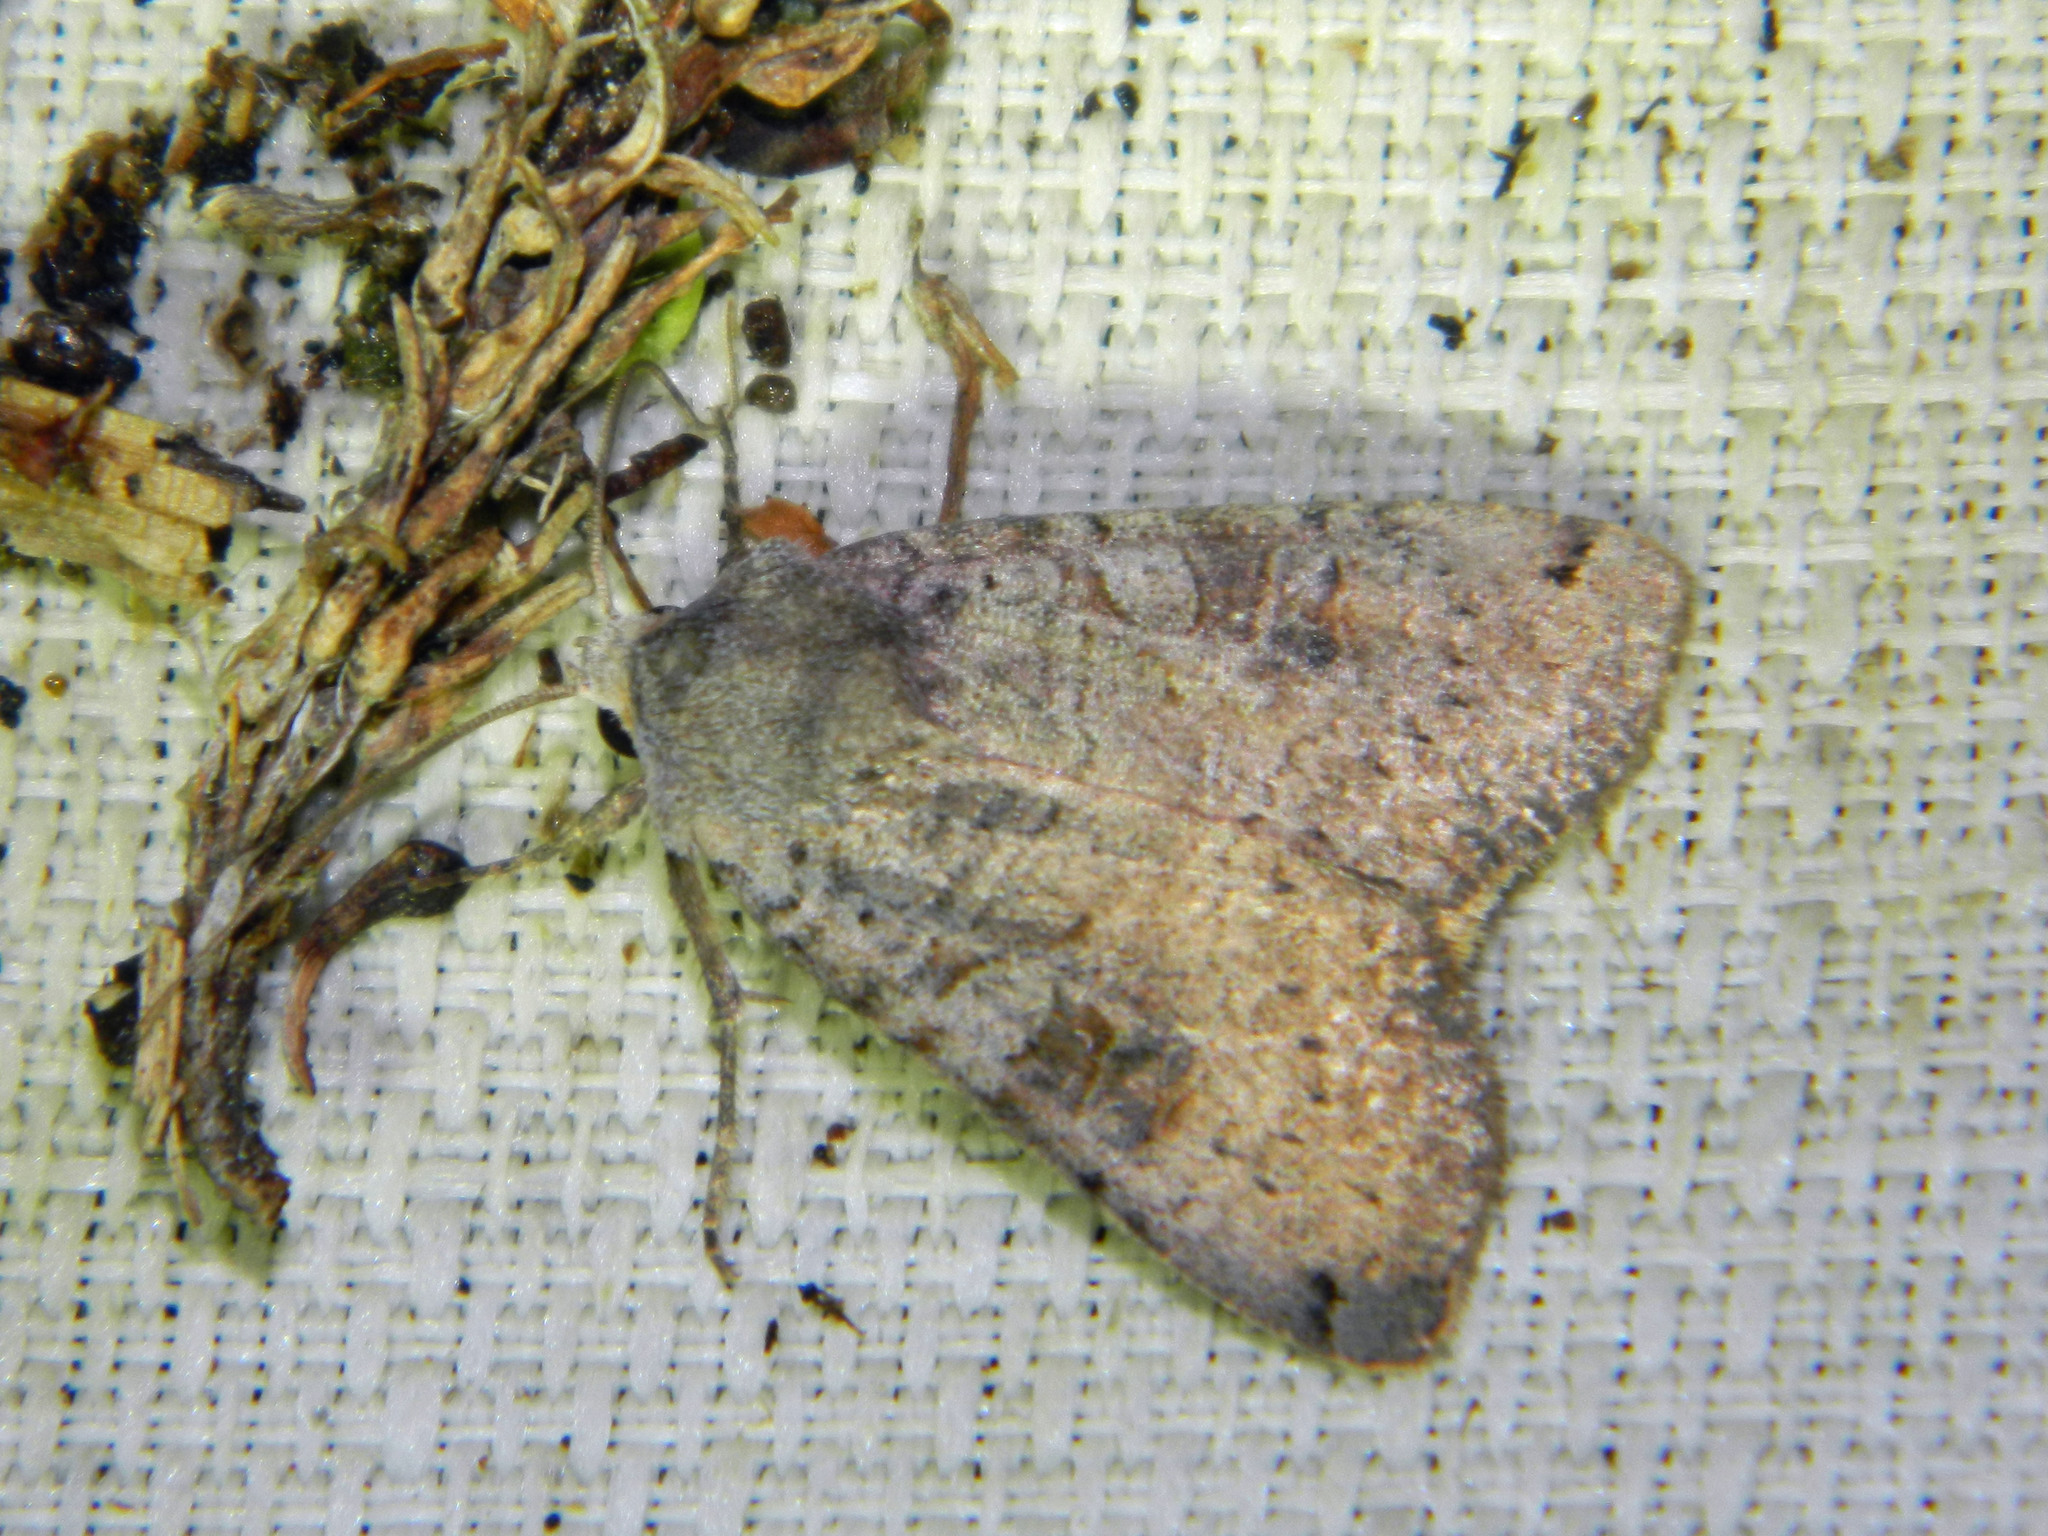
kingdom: Animalia
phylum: Arthropoda
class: Insecta
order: Lepidoptera
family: Noctuidae
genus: Xestia
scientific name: Xestia smithii
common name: Smith's dart
